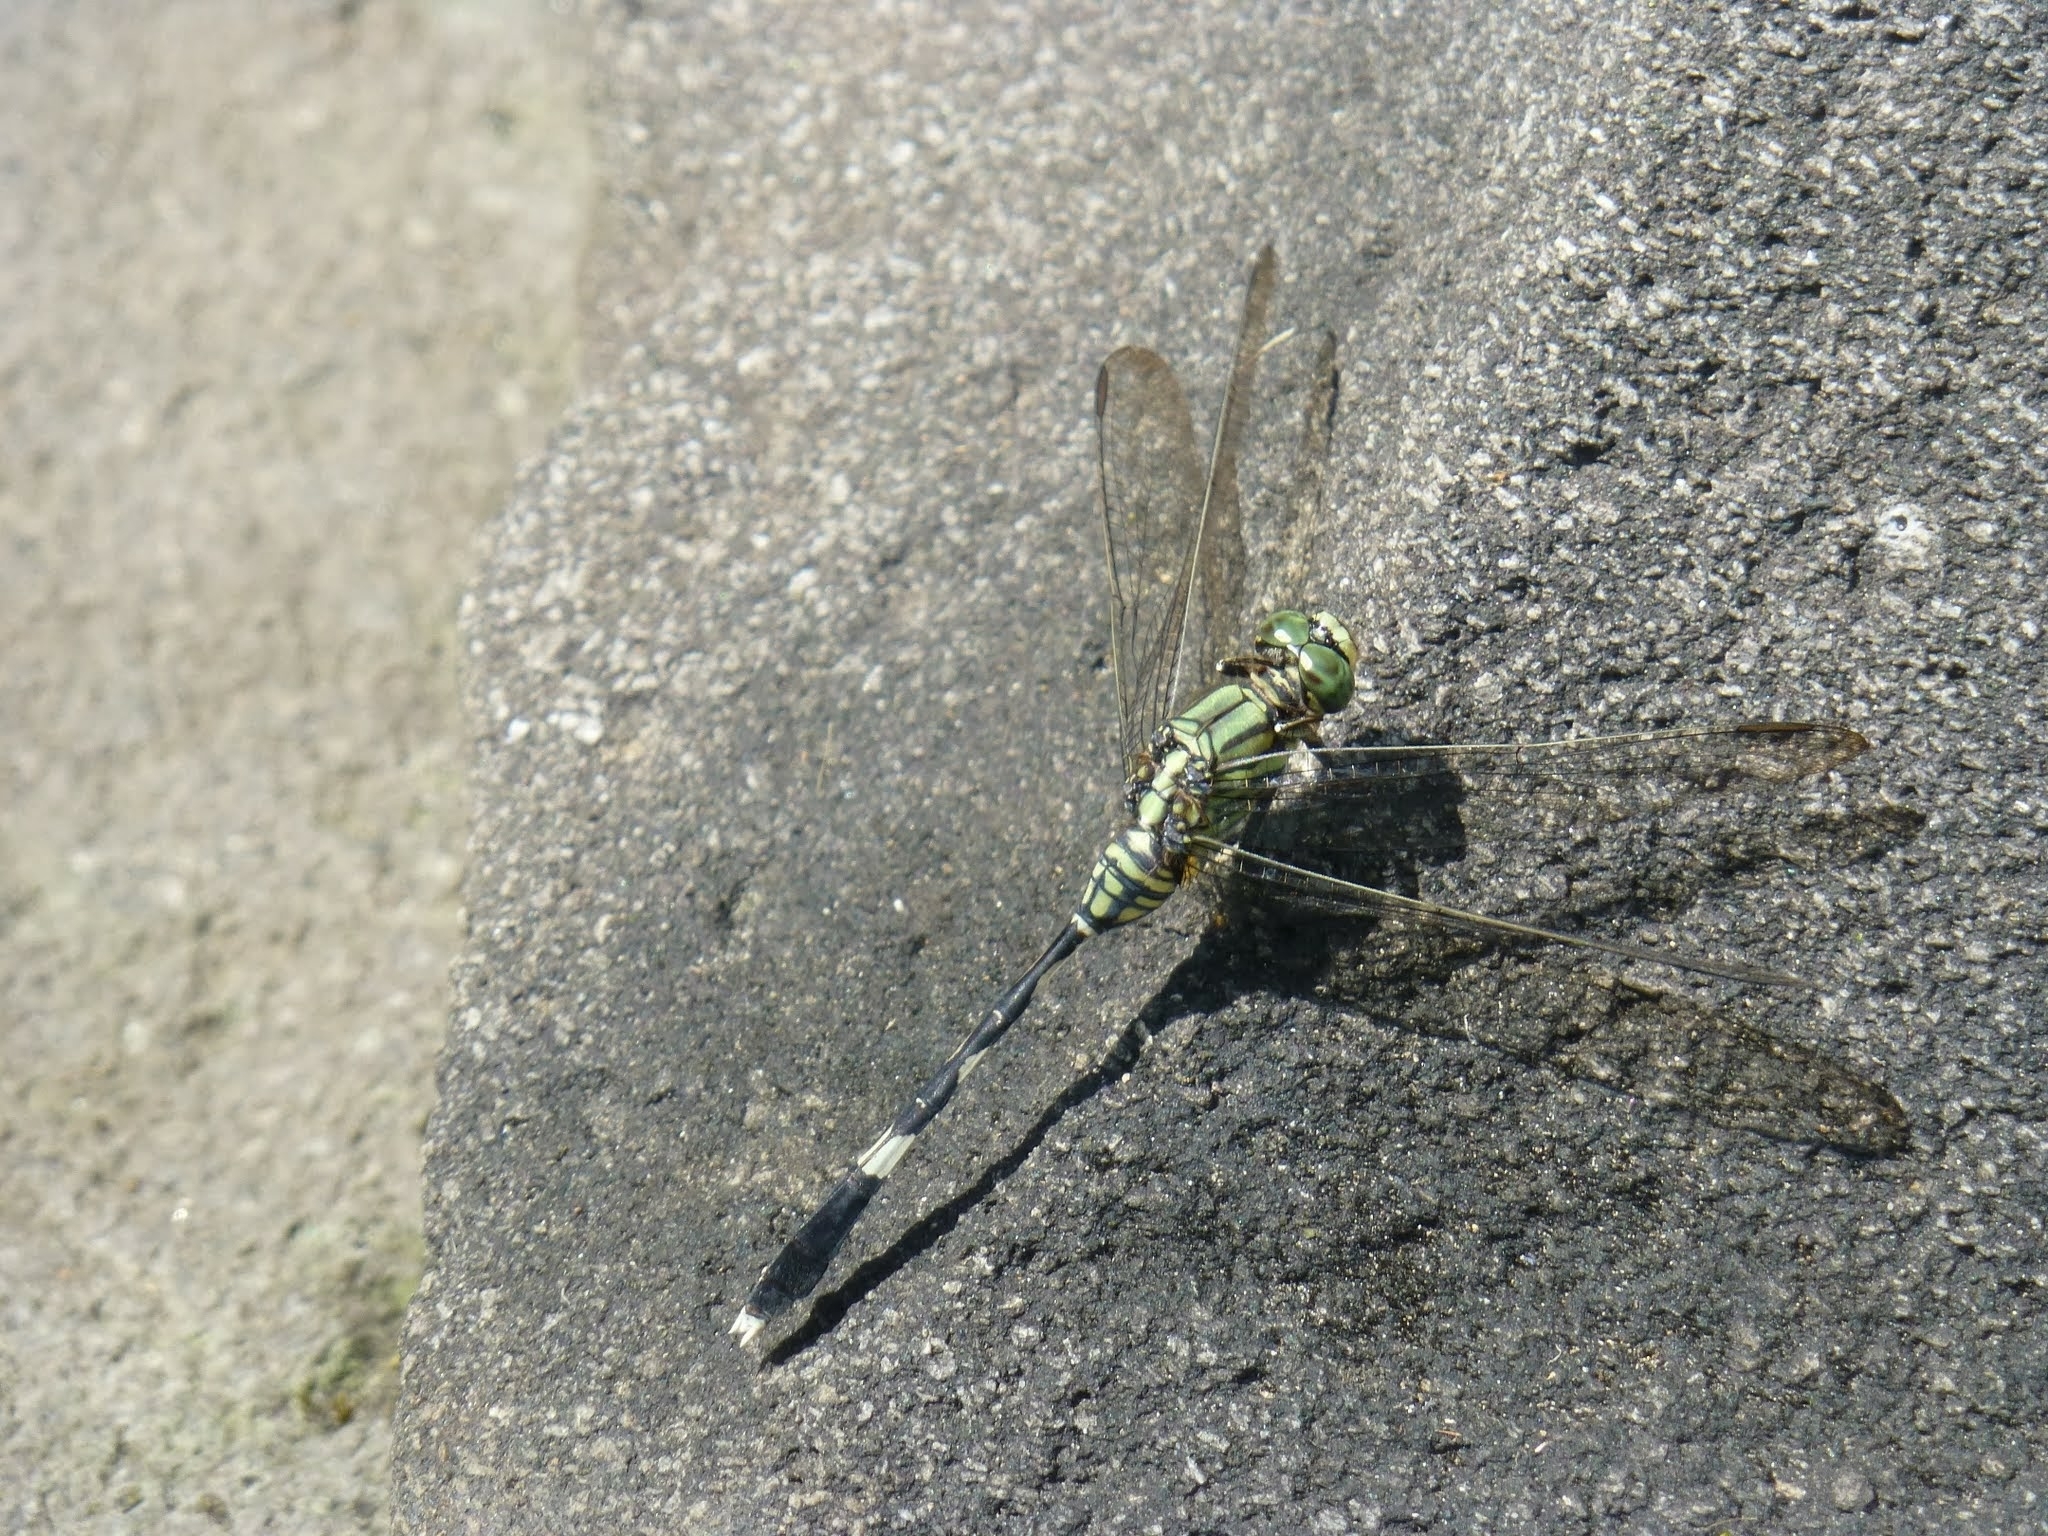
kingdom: Animalia
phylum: Arthropoda
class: Insecta
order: Odonata
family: Libellulidae
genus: Orthetrum
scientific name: Orthetrum sabina
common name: Slender skimmer
